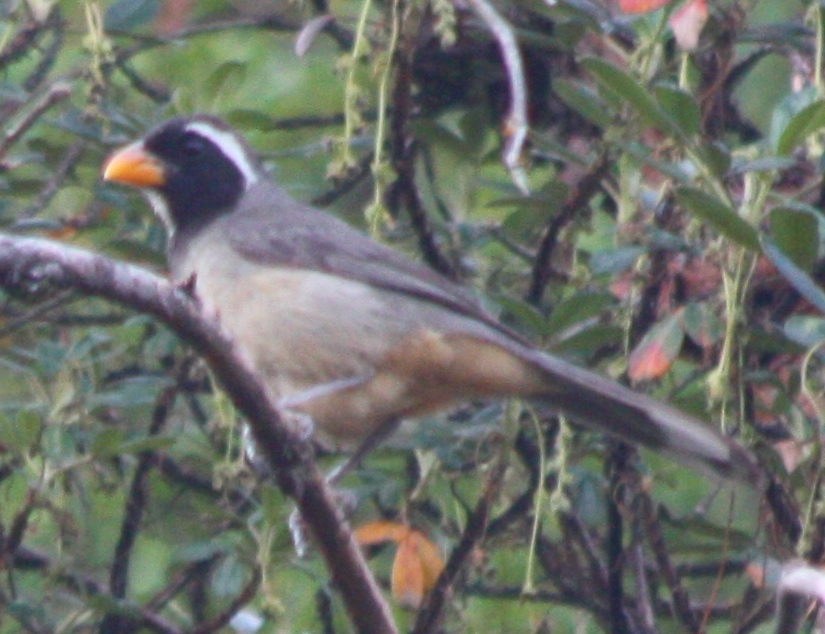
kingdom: Animalia
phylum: Chordata
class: Aves
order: Passeriformes
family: Thraupidae
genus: Saltator
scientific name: Saltator aurantiirostris
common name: Golden-billed saltator
